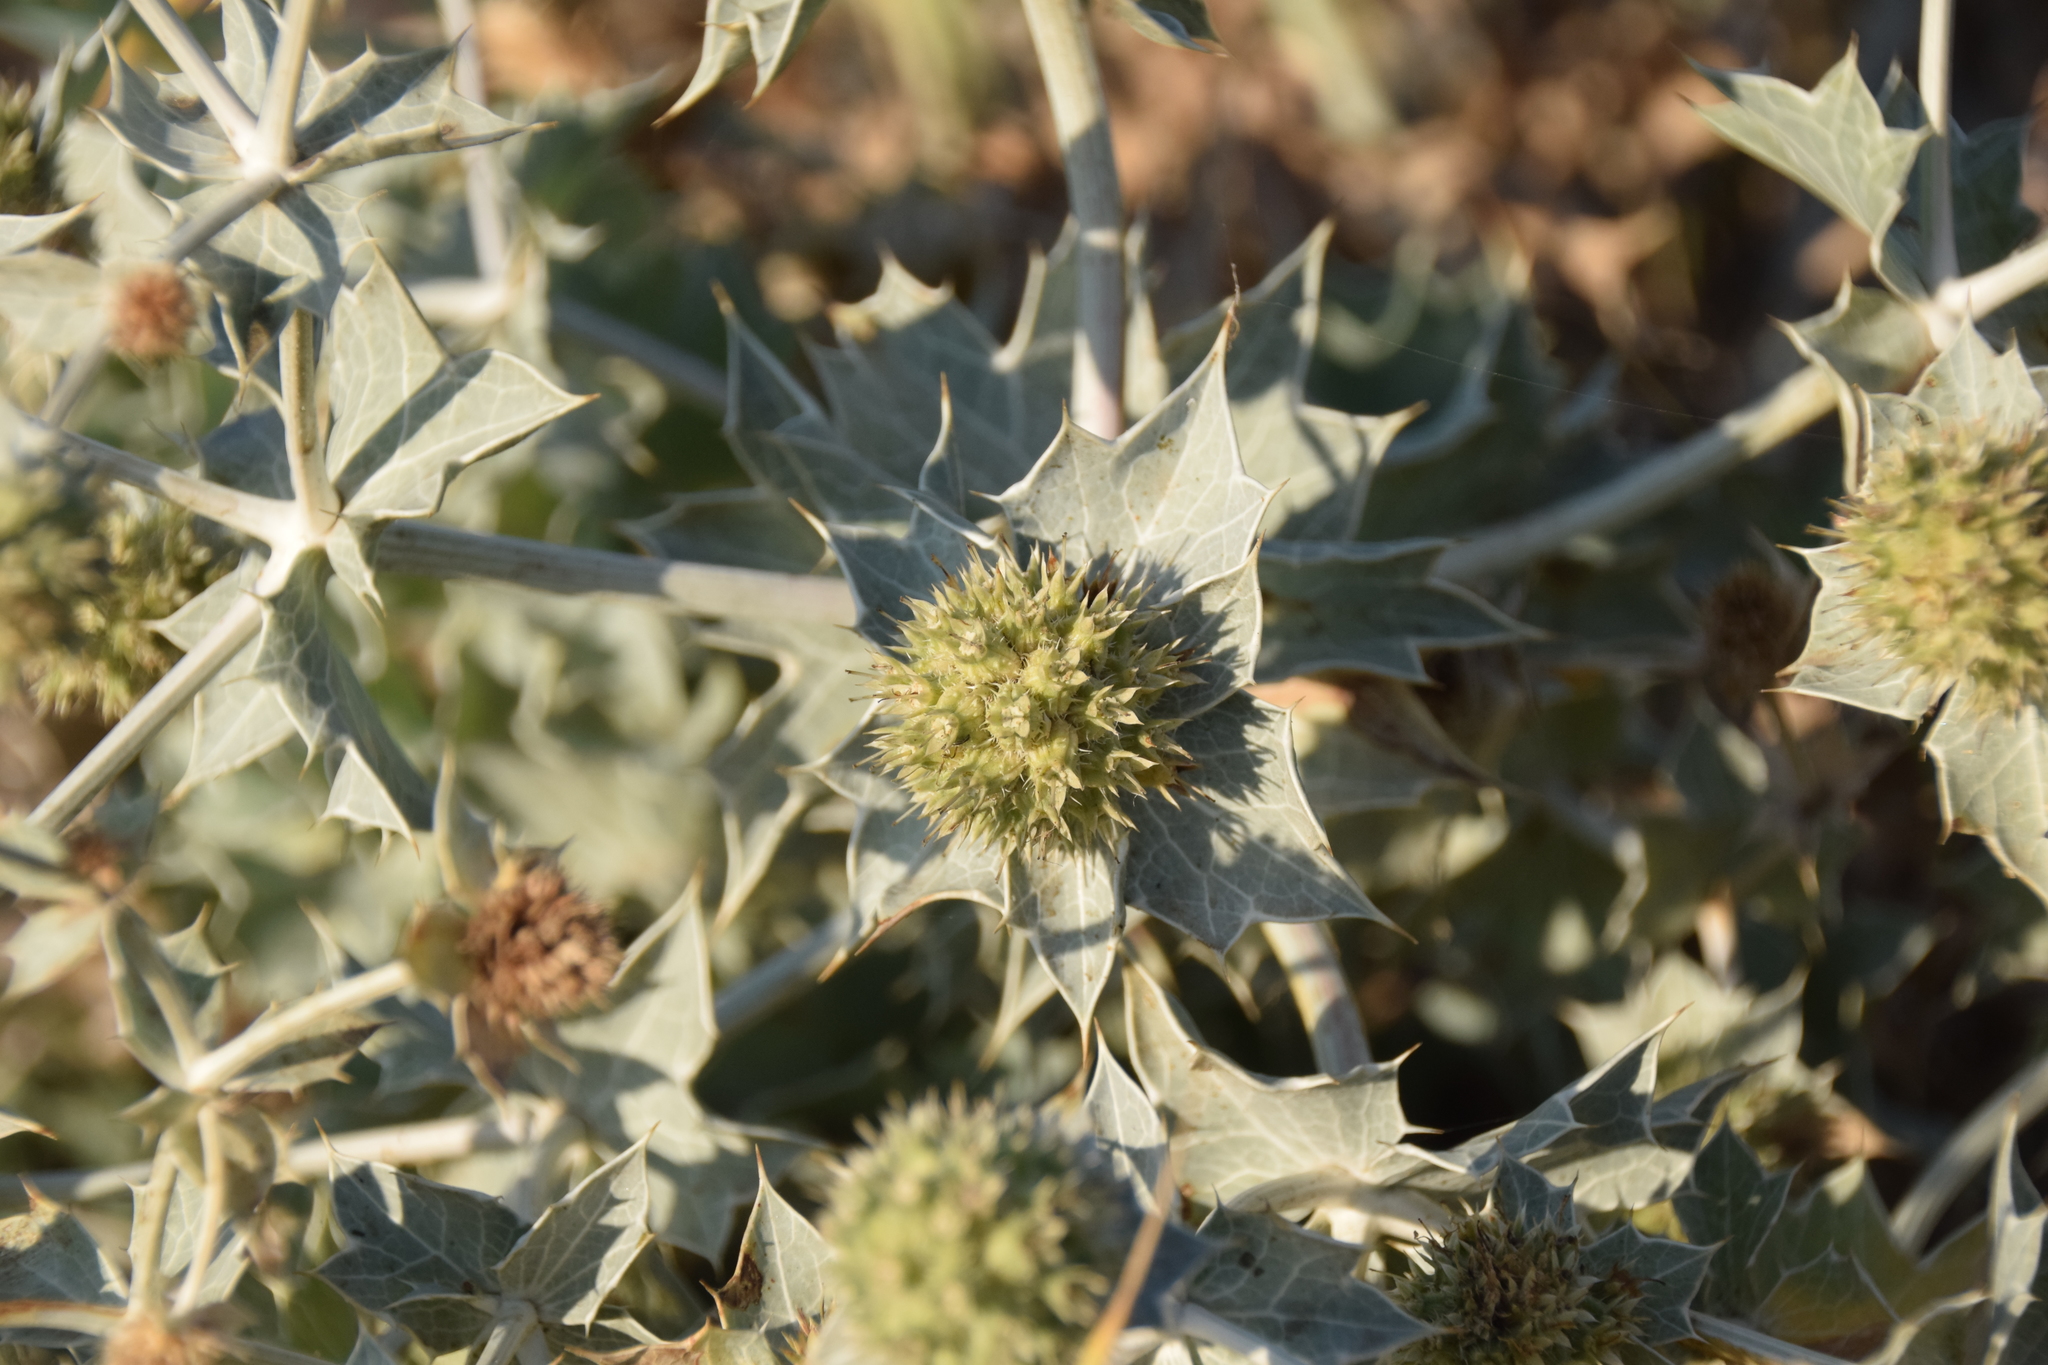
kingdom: Plantae
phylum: Tracheophyta
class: Magnoliopsida
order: Apiales
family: Apiaceae
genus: Eryngium
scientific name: Eryngium maritimum
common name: Sea-holly
